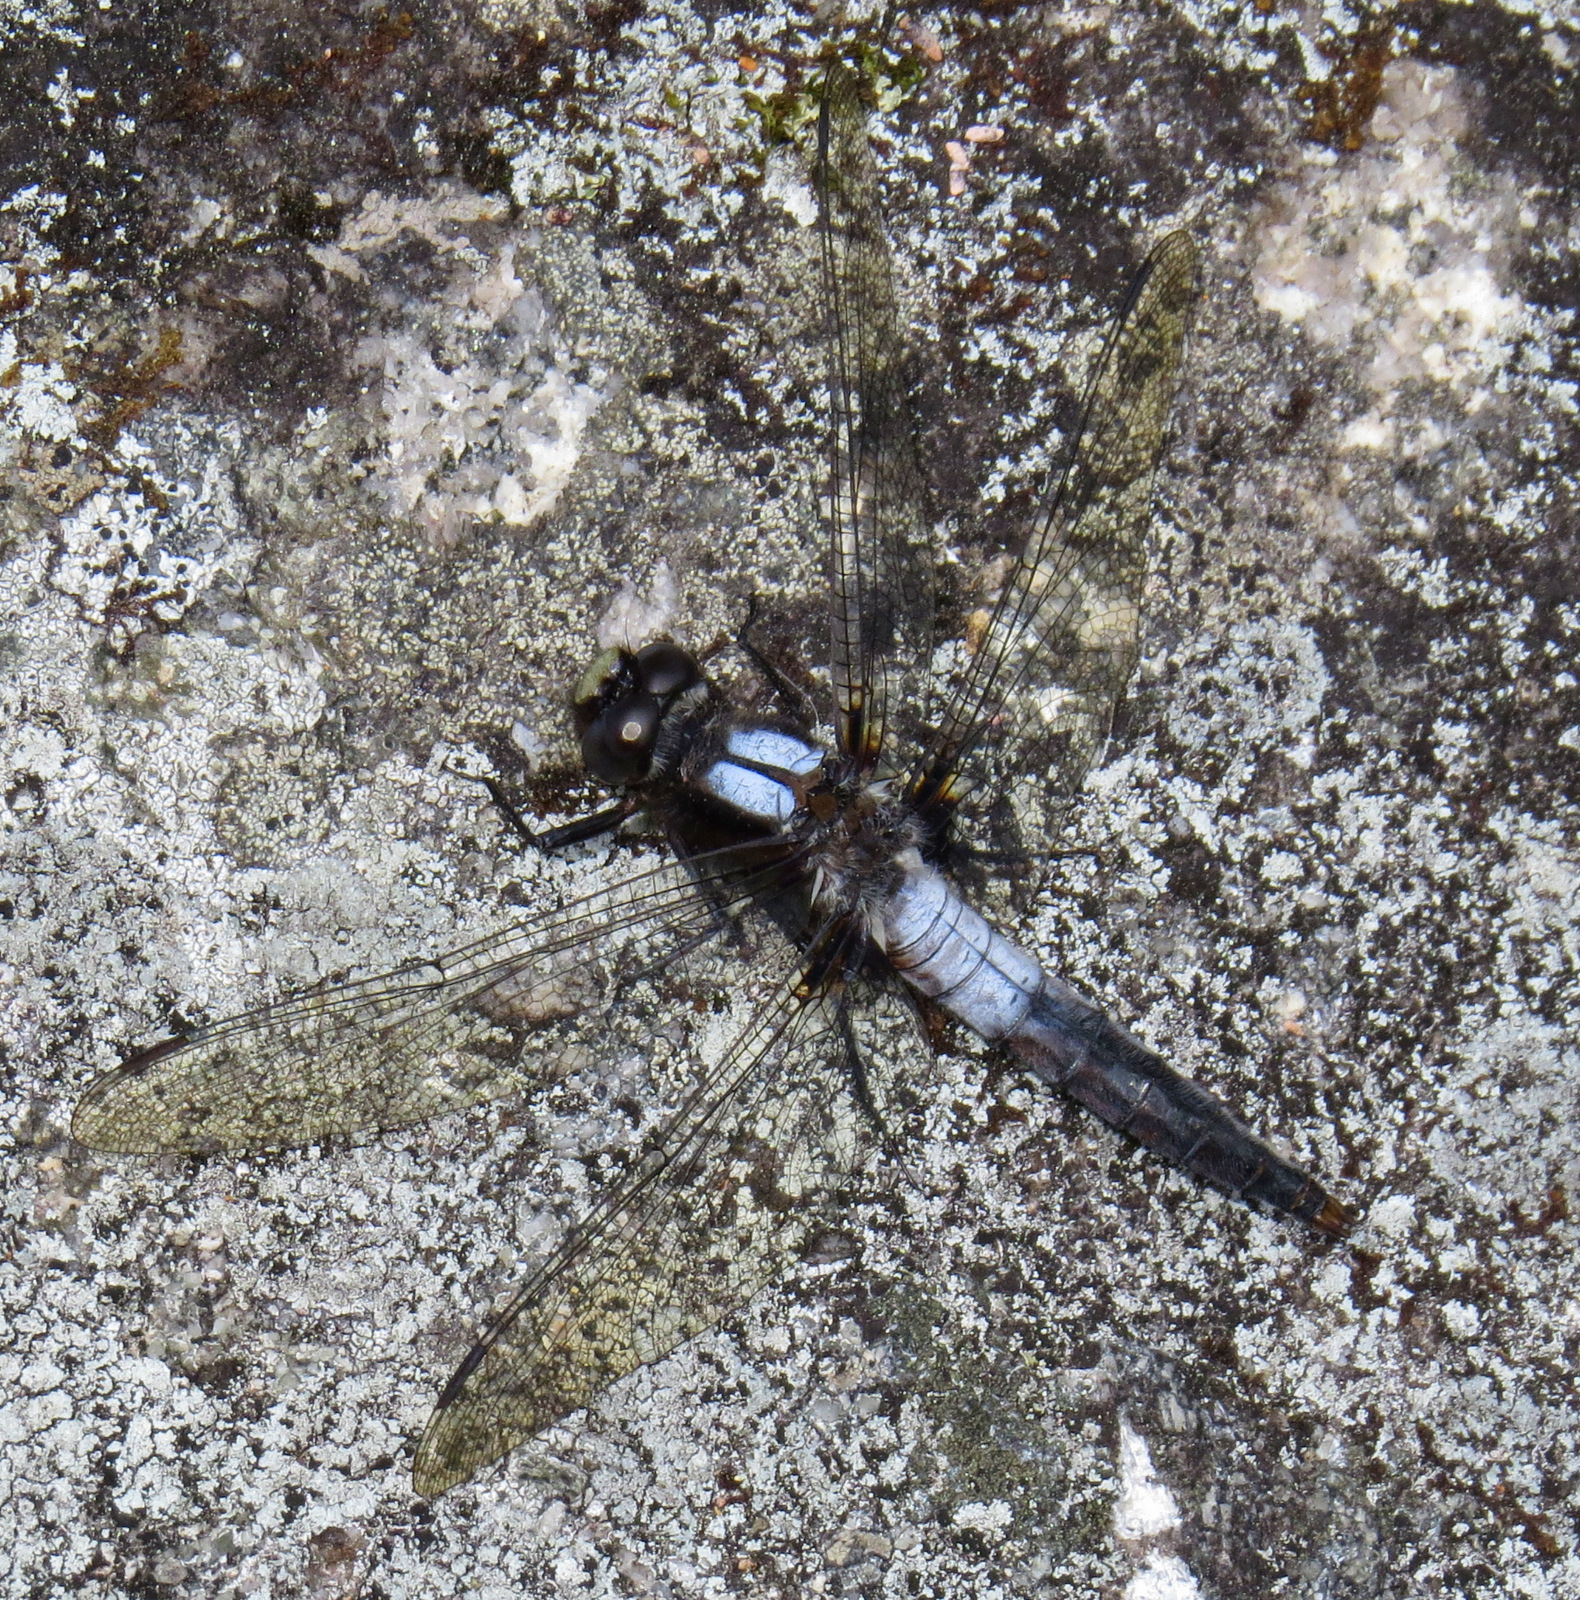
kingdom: Animalia
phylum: Arthropoda
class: Insecta
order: Odonata
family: Libellulidae
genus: Ladona
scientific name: Ladona julia
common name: Chalk-fronted corporal
